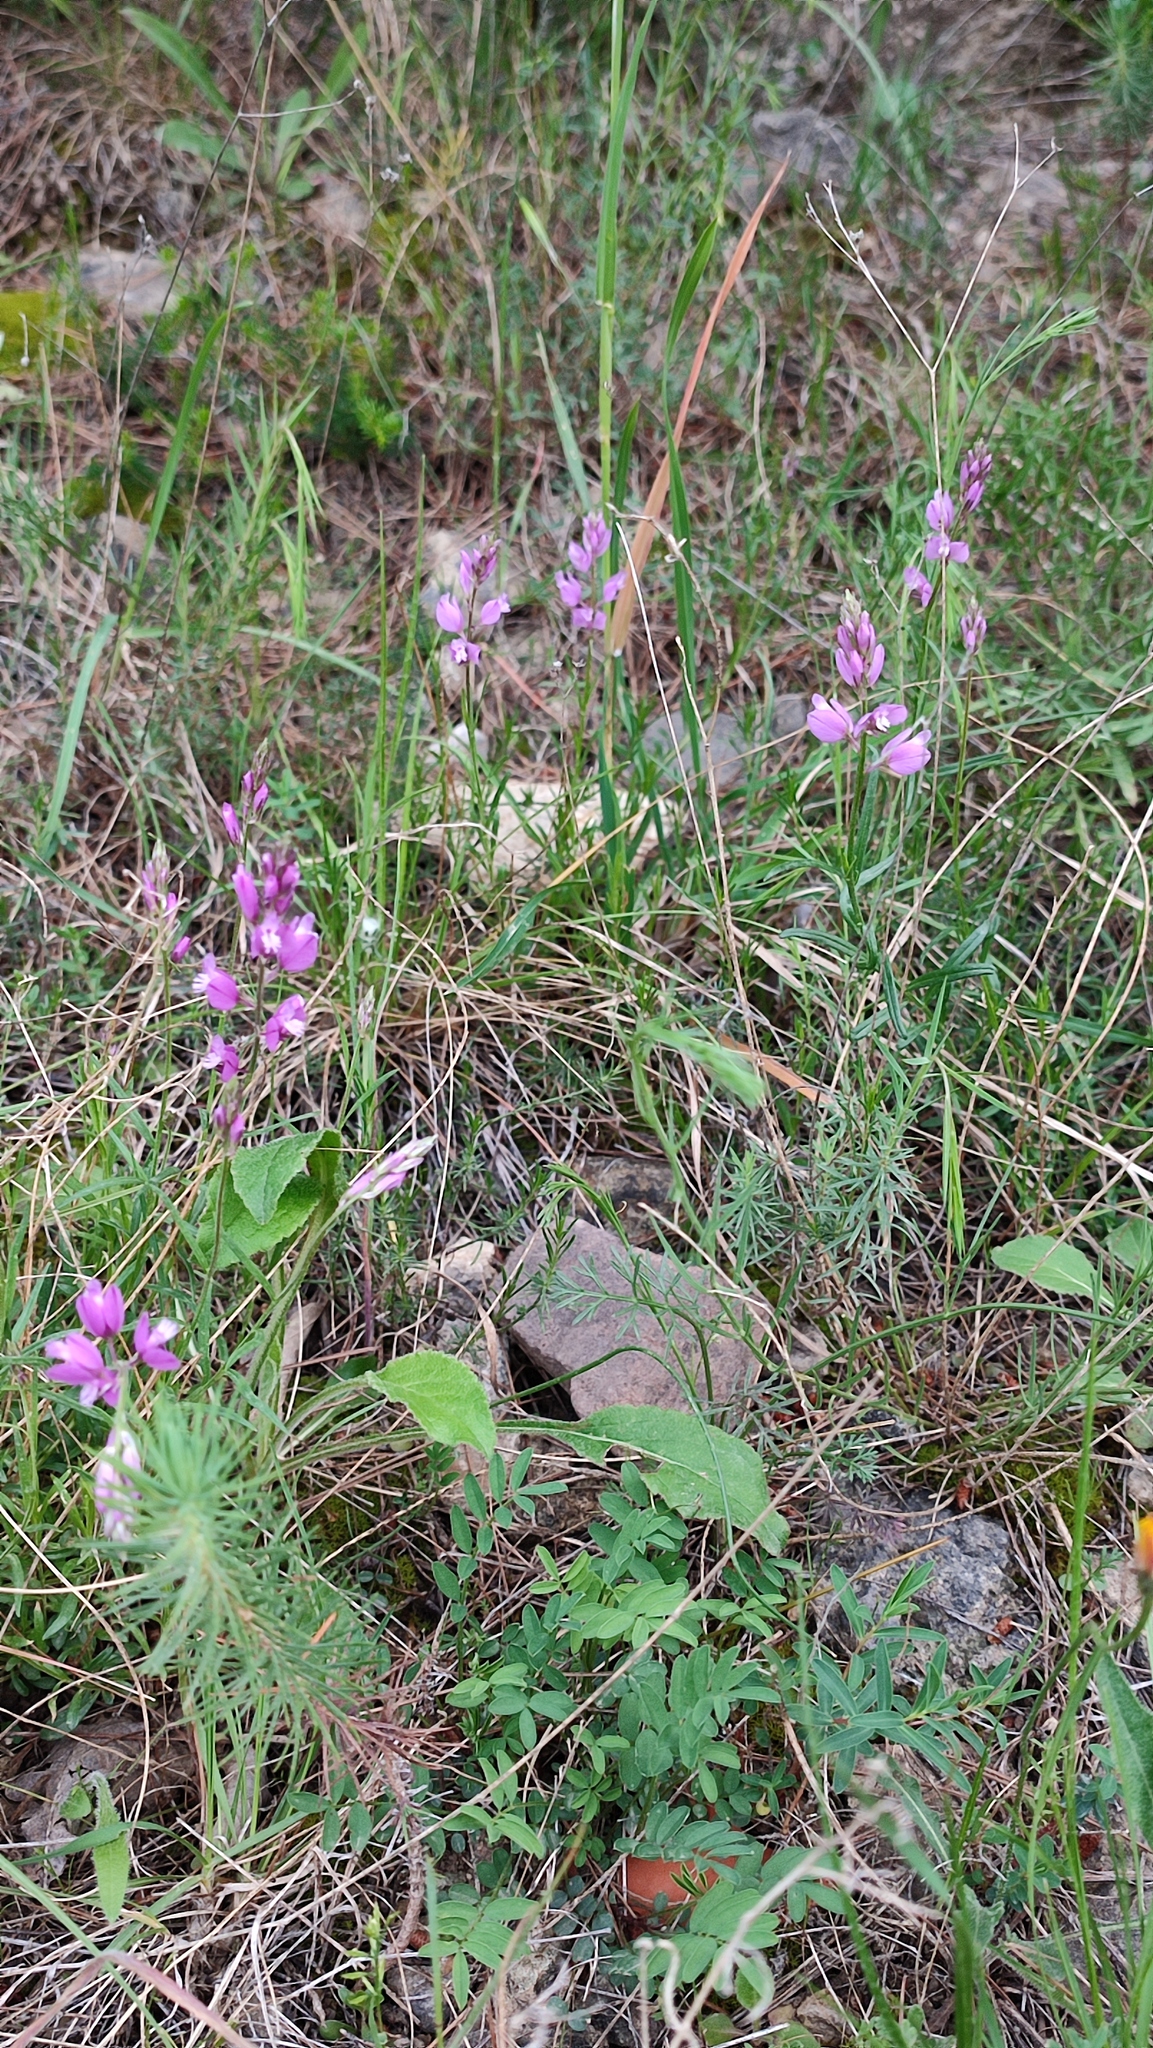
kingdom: Plantae
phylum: Tracheophyta
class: Magnoliopsida
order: Fabales
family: Polygalaceae
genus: Polygala
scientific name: Polygala nicaeensis
